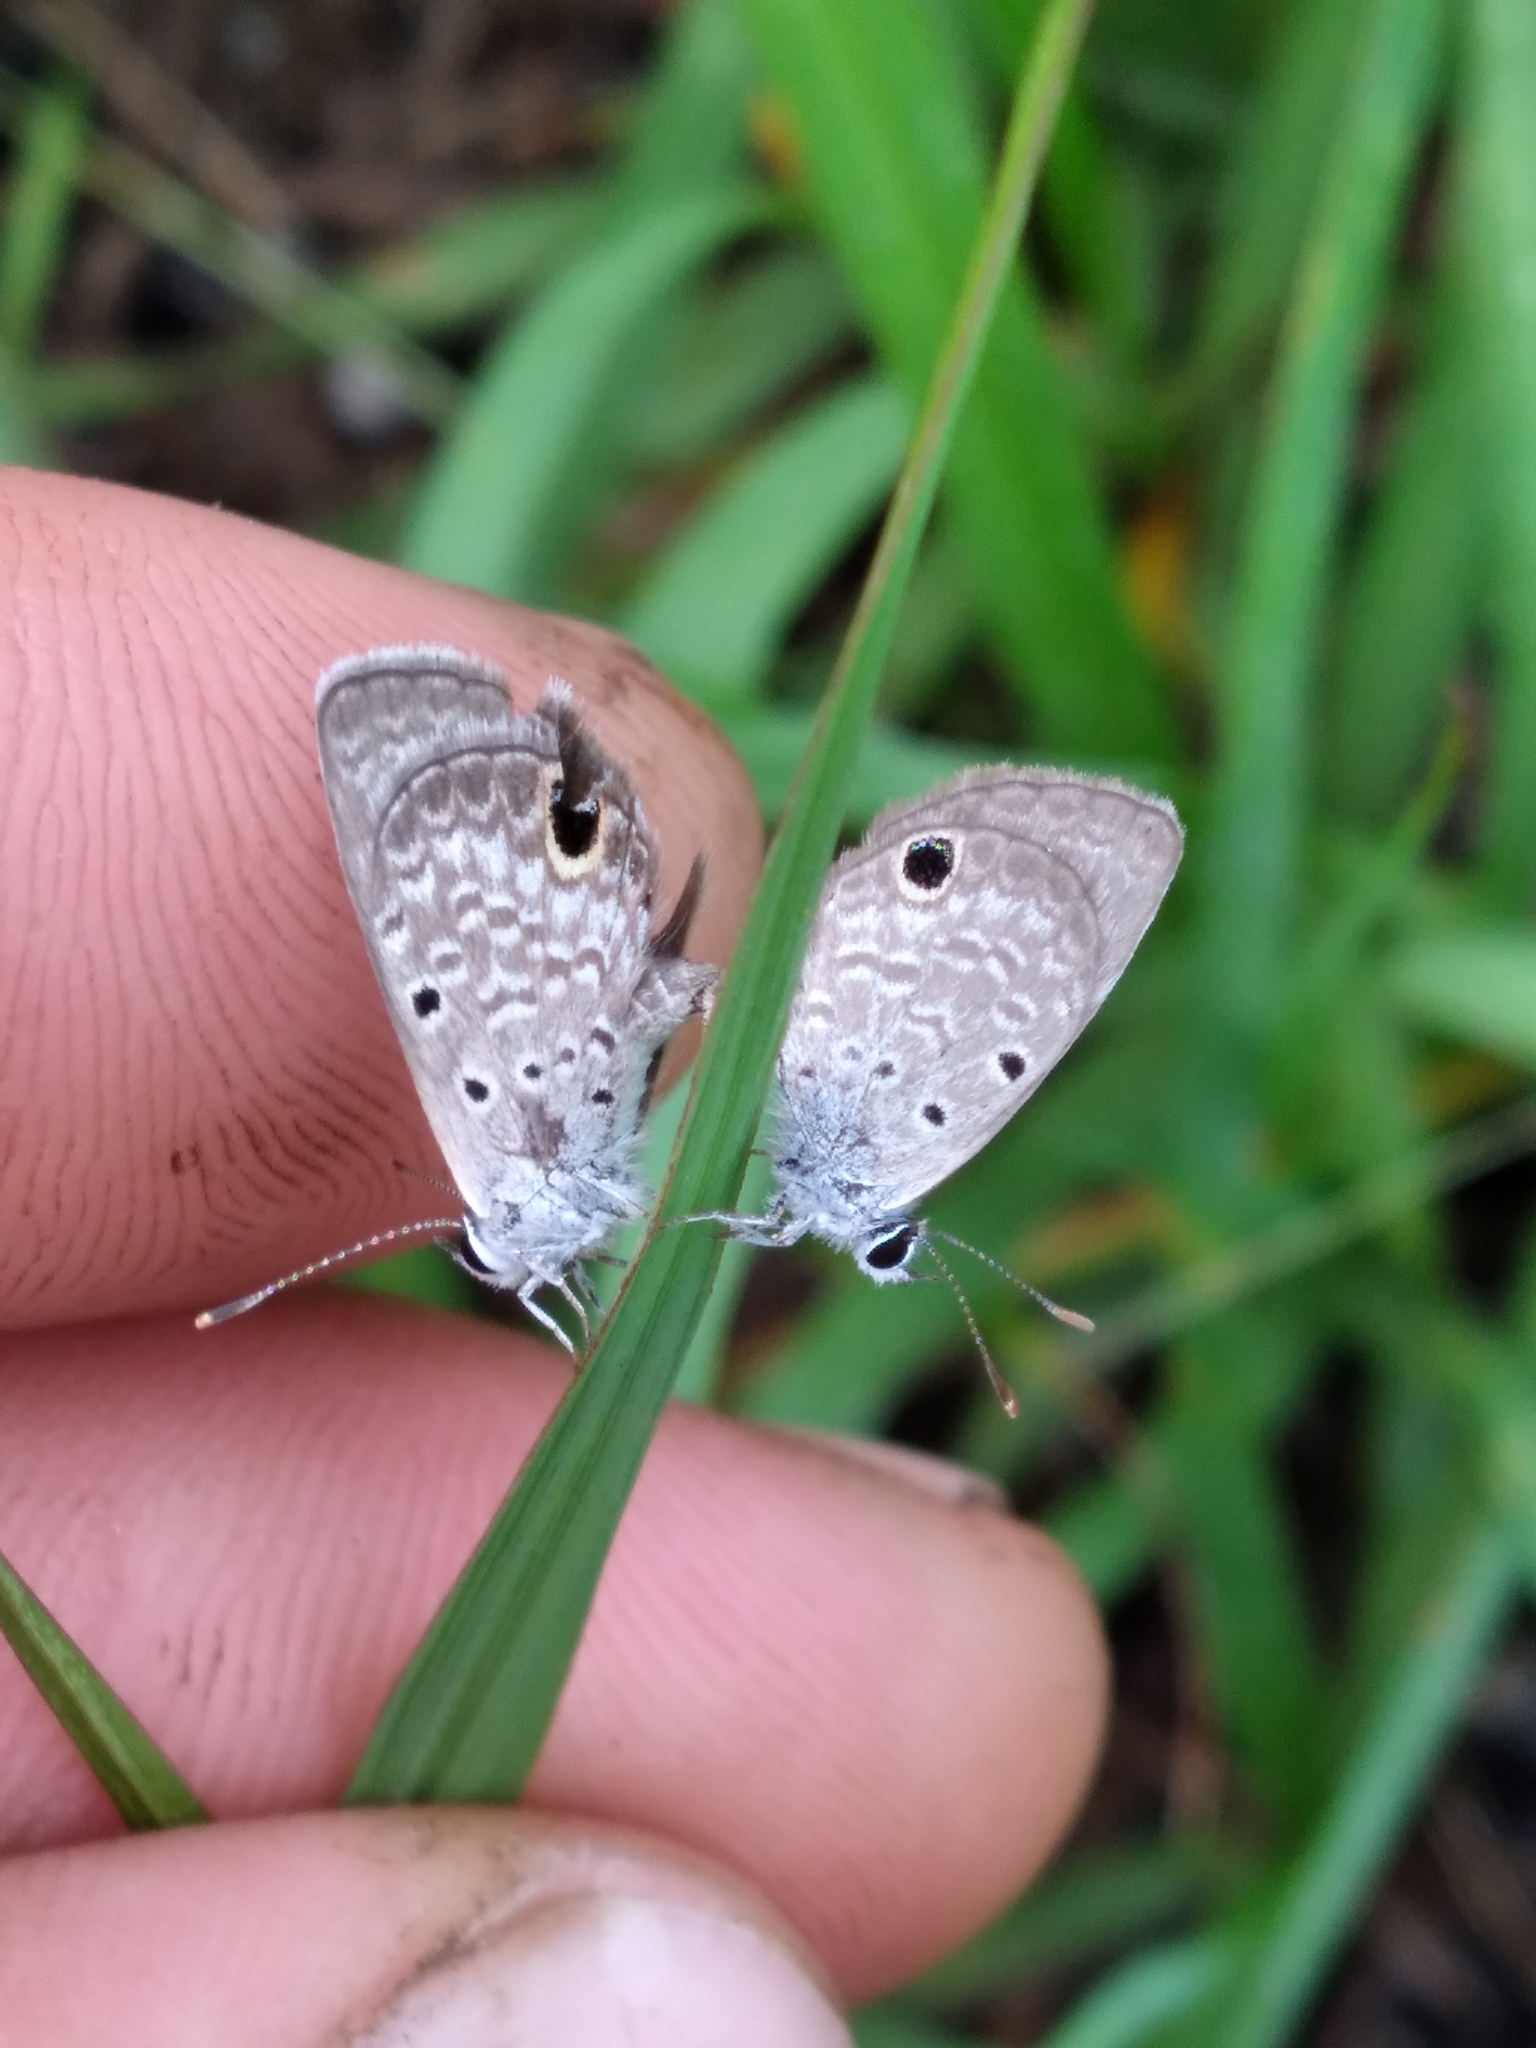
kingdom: Animalia
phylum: Arthropoda
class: Insecta
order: Lepidoptera
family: Lycaenidae
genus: Hemiargus
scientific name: Hemiargus ceraunus
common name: Ceraunus blue
